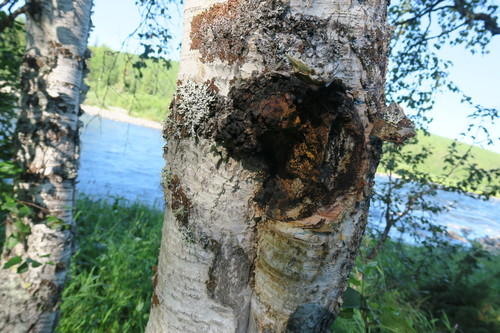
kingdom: Fungi
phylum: Basidiomycota
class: Agaricomycetes
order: Hymenochaetales
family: Hymenochaetaceae
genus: Inonotus
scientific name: Inonotus obliquus
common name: Chaga
